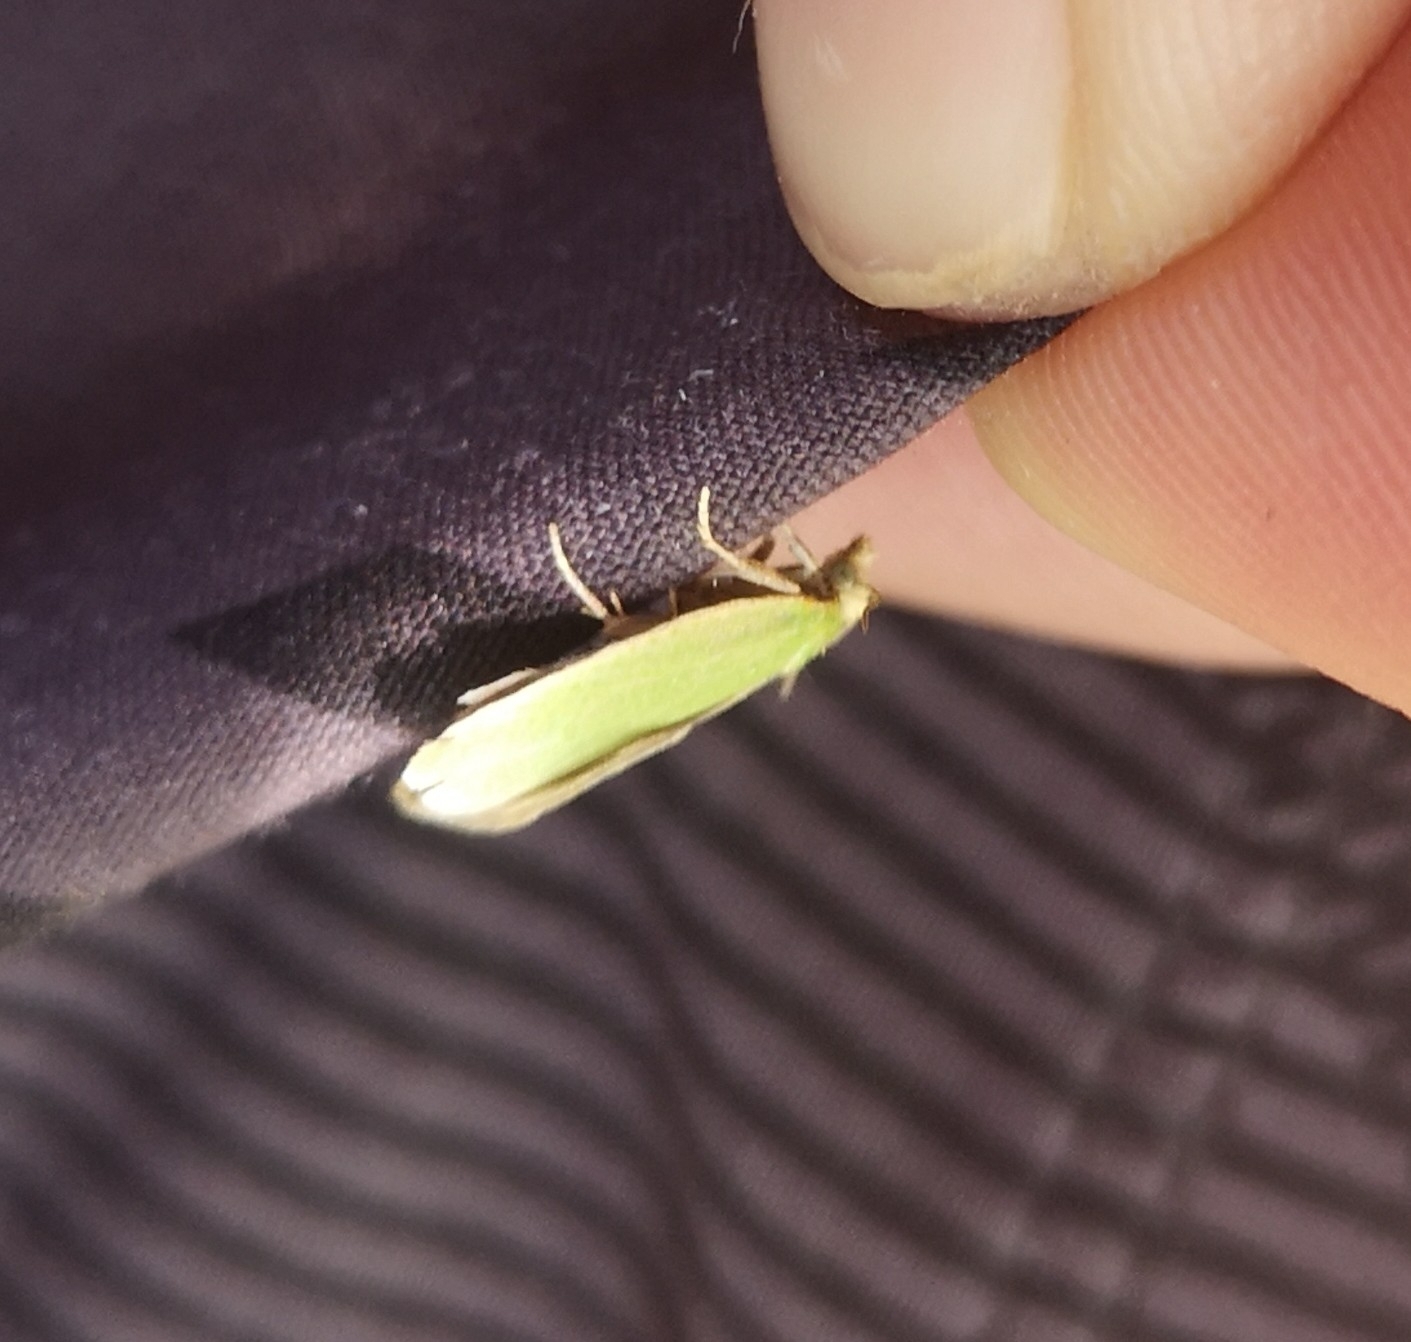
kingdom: Animalia
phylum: Arthropoda
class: Insecta
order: Lepidoptera
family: Tortricidae
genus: Tortrix
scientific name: Tortrix viridana
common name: Green oak tortrix
